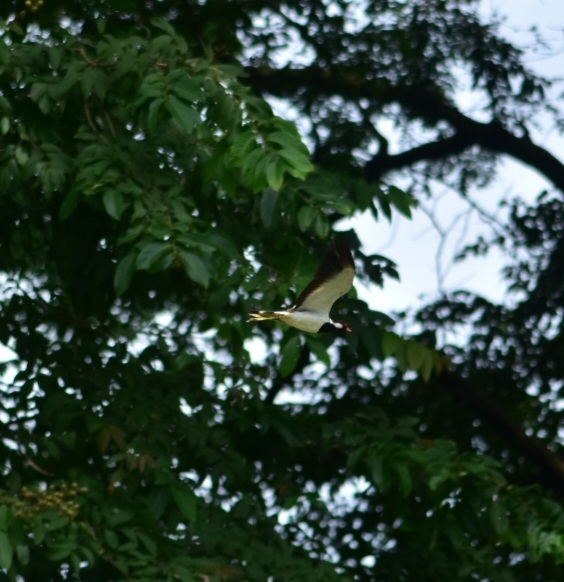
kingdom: Animalia
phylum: Chordata
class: Aves
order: Charadriiformes
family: Charadriidae
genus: Vanellus
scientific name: Vanellus indicus
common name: Red-wattled lapwing
